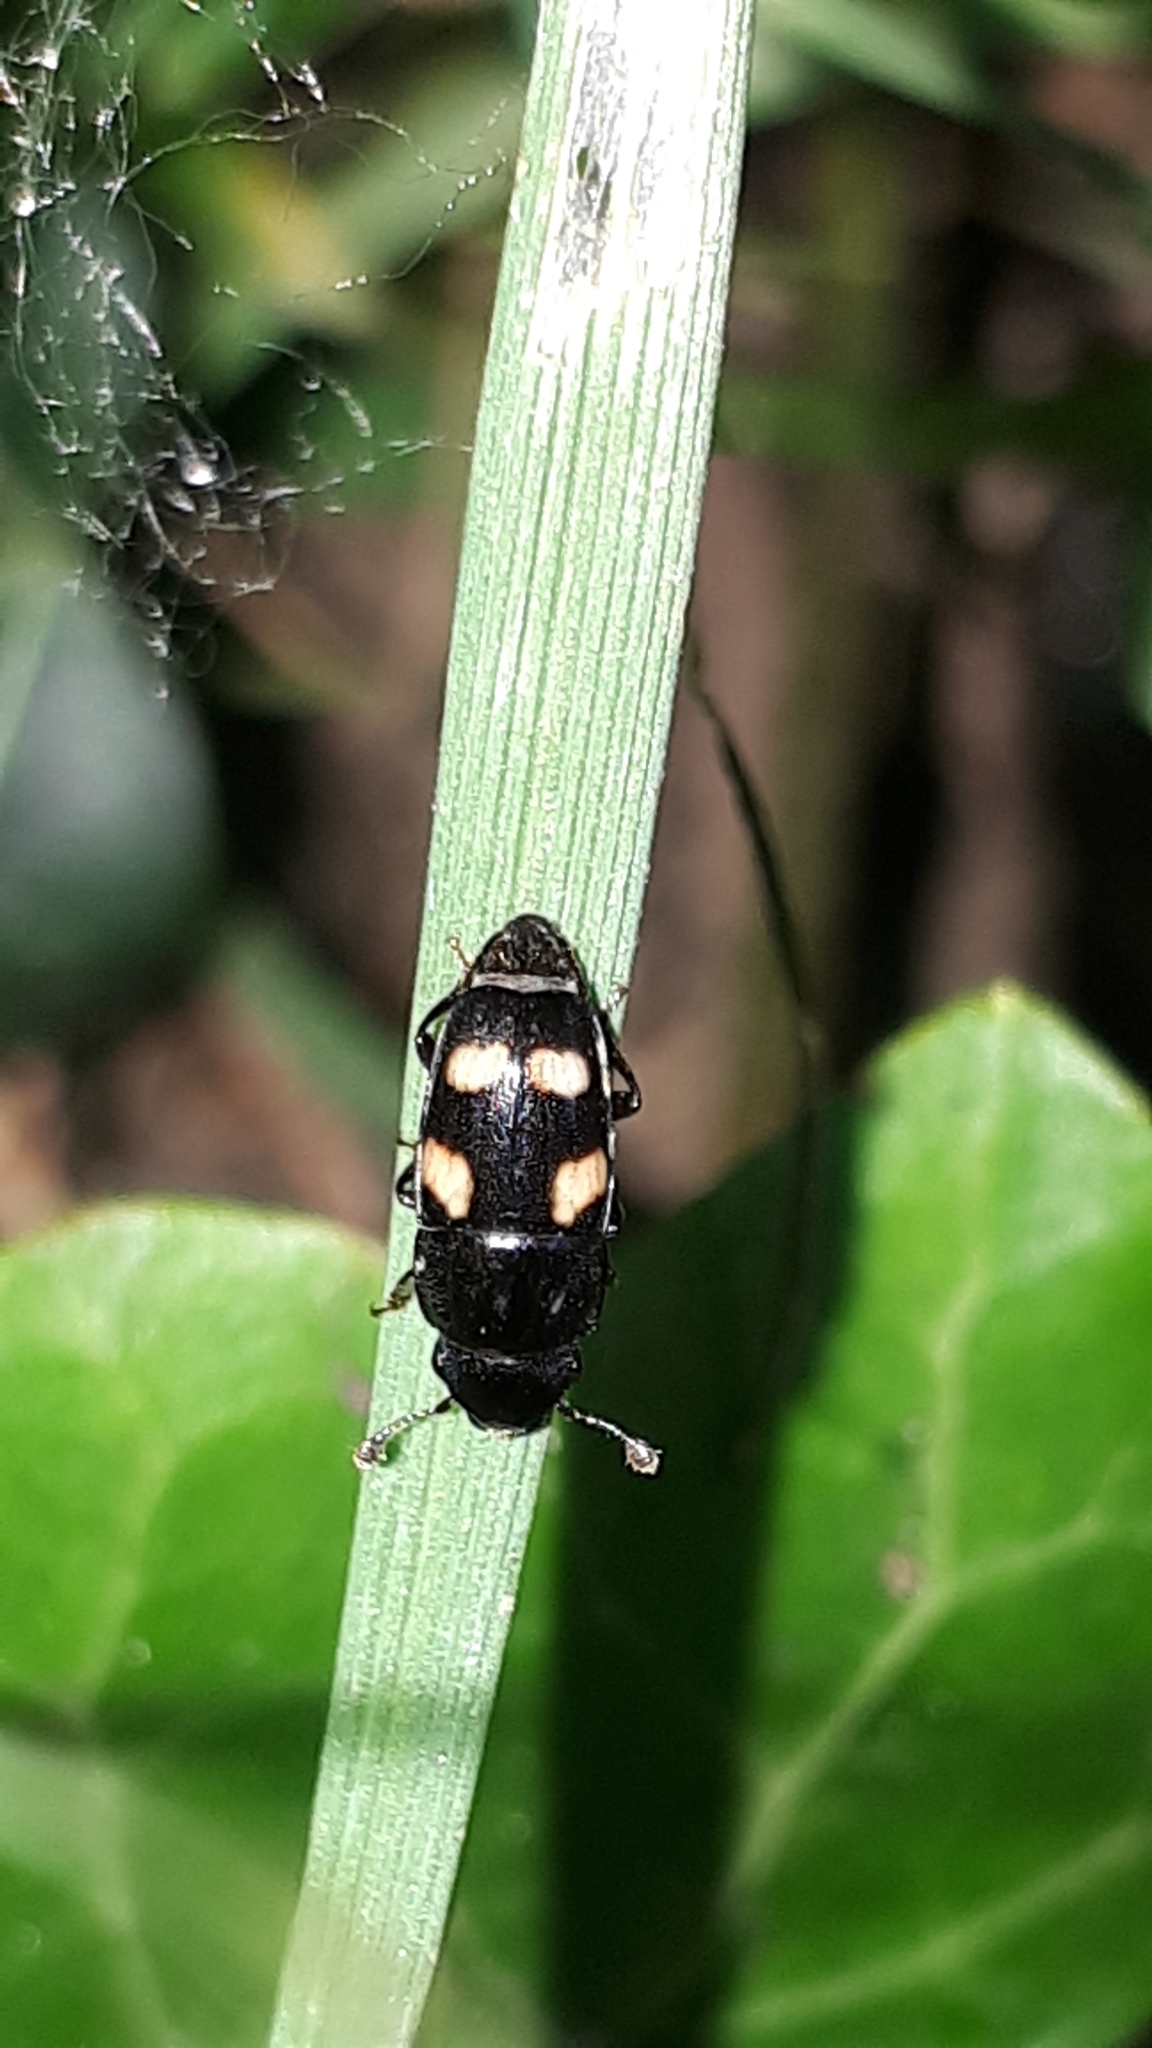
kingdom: Animalia
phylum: Arthropoda
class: Insecta
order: Coleoptera
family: Nitidulidae
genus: Glischrochilus
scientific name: Glischrochilus quadrisignatus
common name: Picnic beetle
